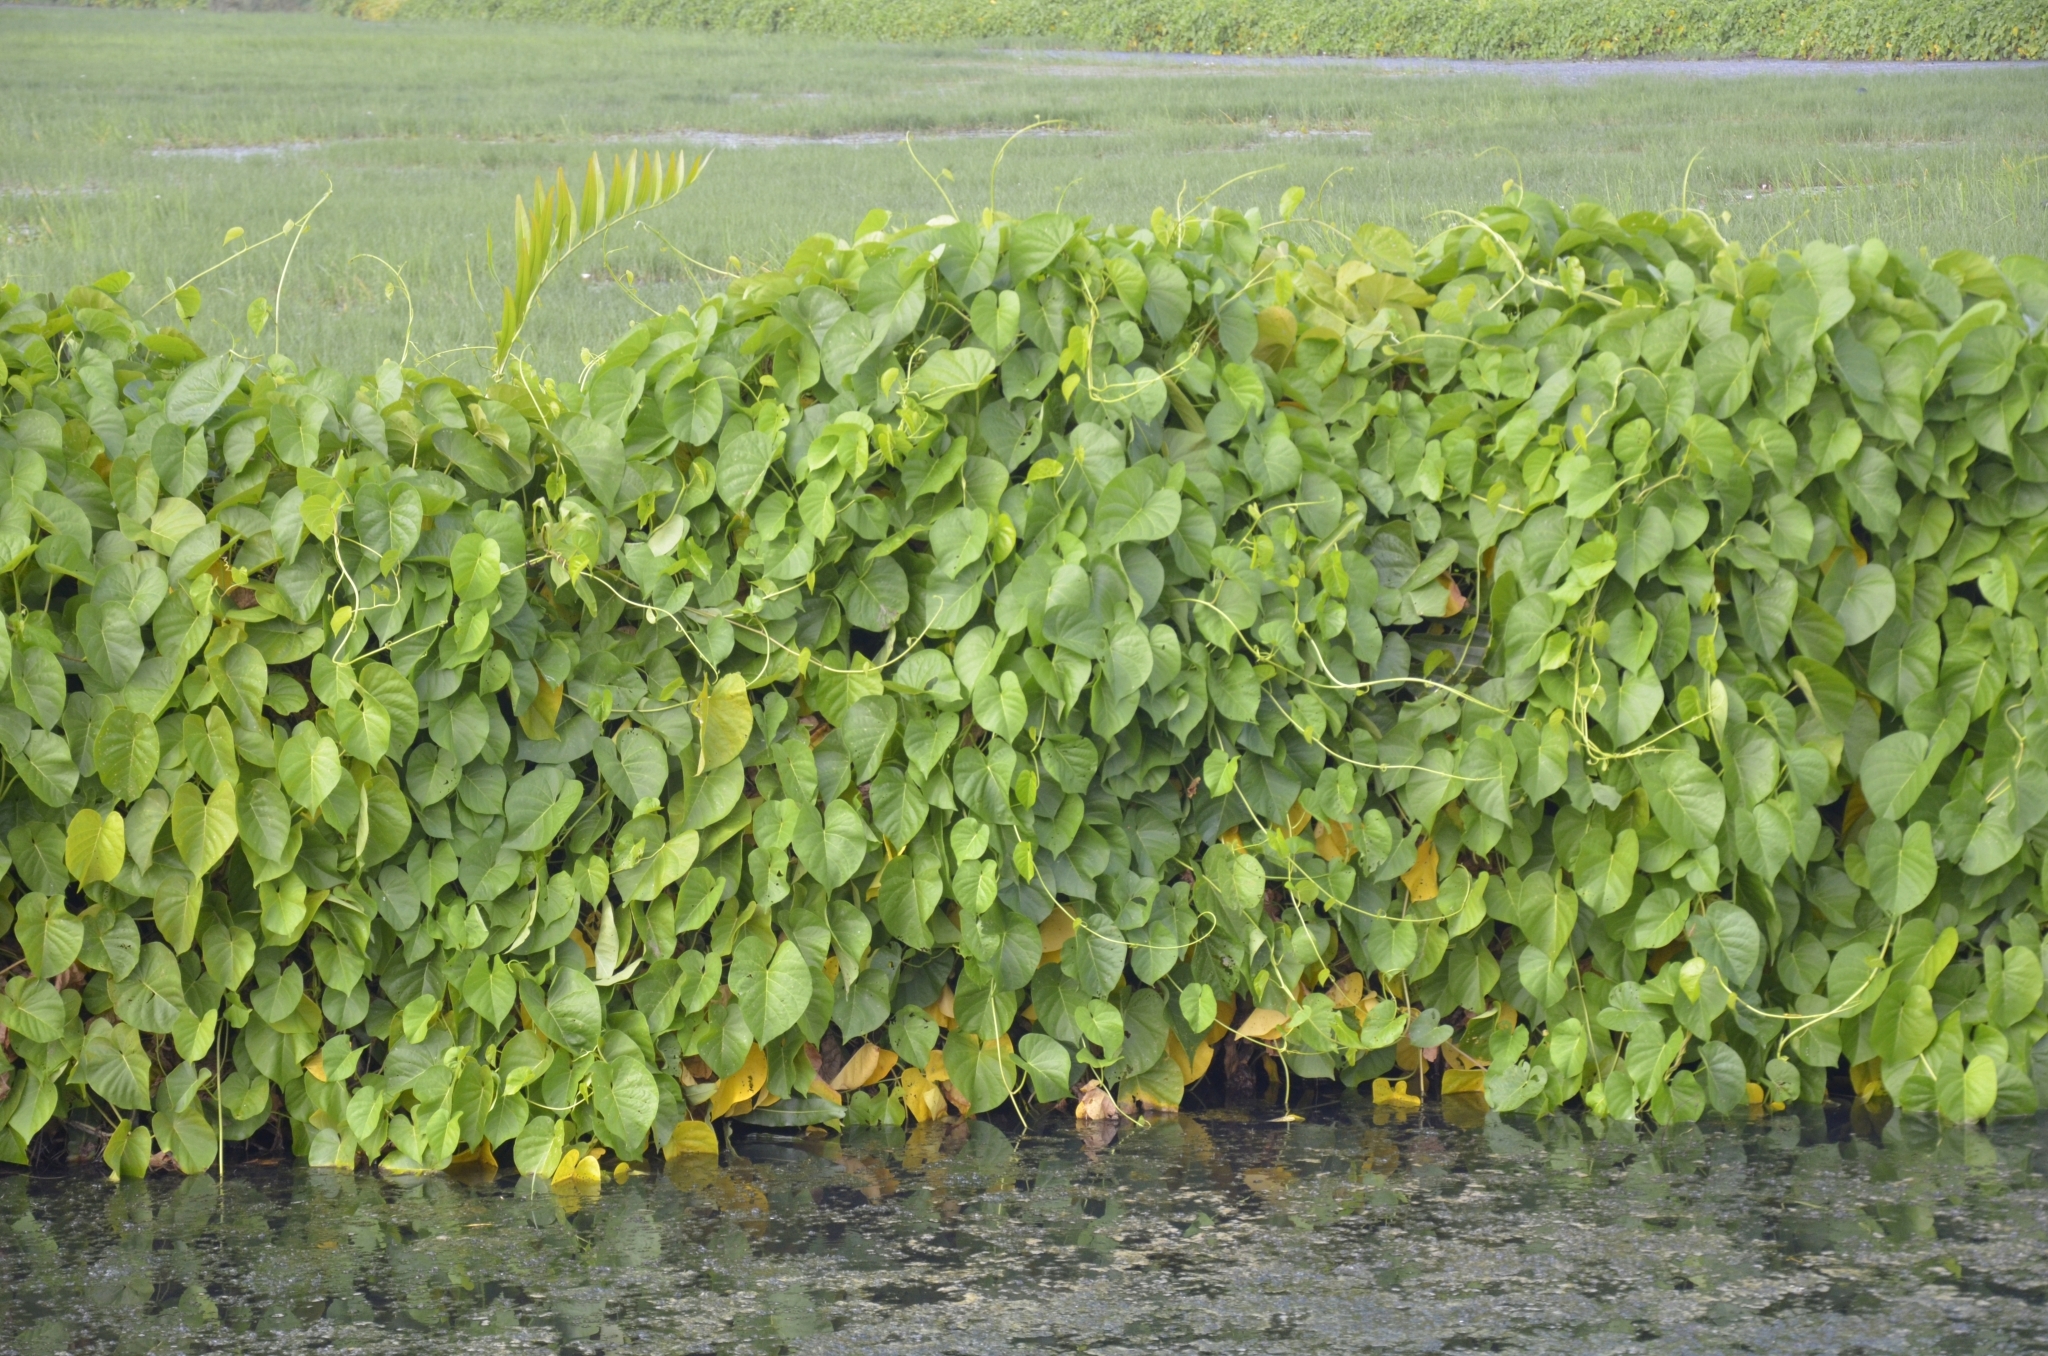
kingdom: Plantae
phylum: Tracheophyta
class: Magnoliopsida
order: Solanales
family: Convolvulaceae
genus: Ipomoea
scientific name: Ipomoea violacea
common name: Beach moonflower
